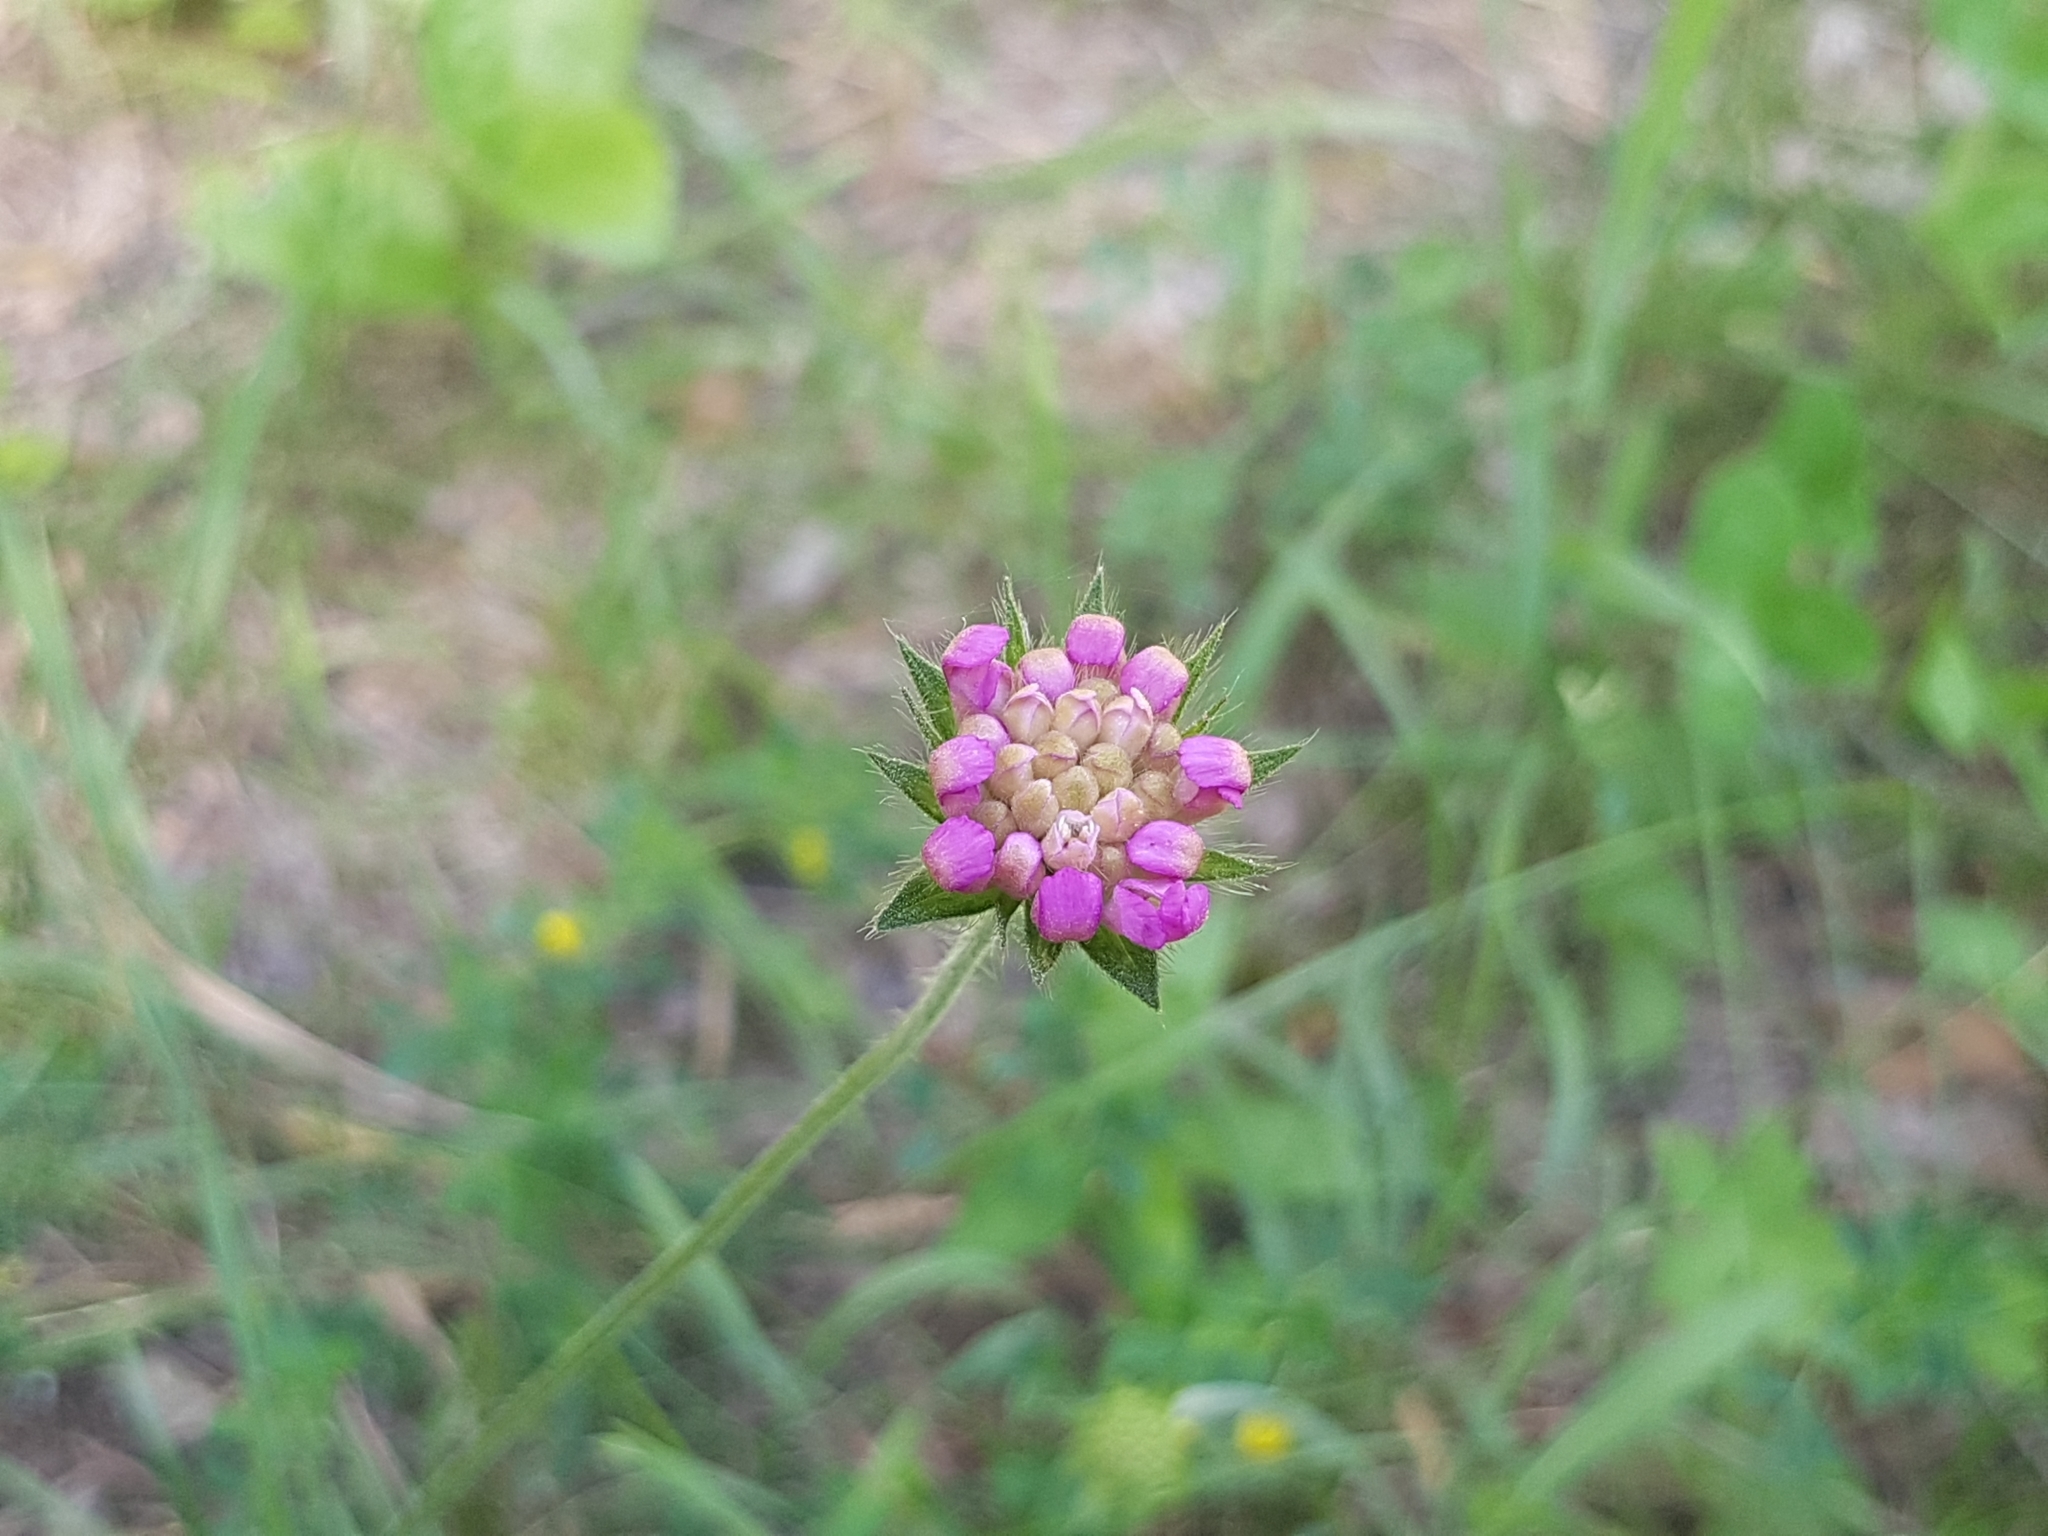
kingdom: Plantae
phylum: Tracheophyta
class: Magnoliopsida
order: Dipsacales
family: Caprifoliaceae
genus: Knautia
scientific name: Knautia arvensis
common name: Field scabiosa
